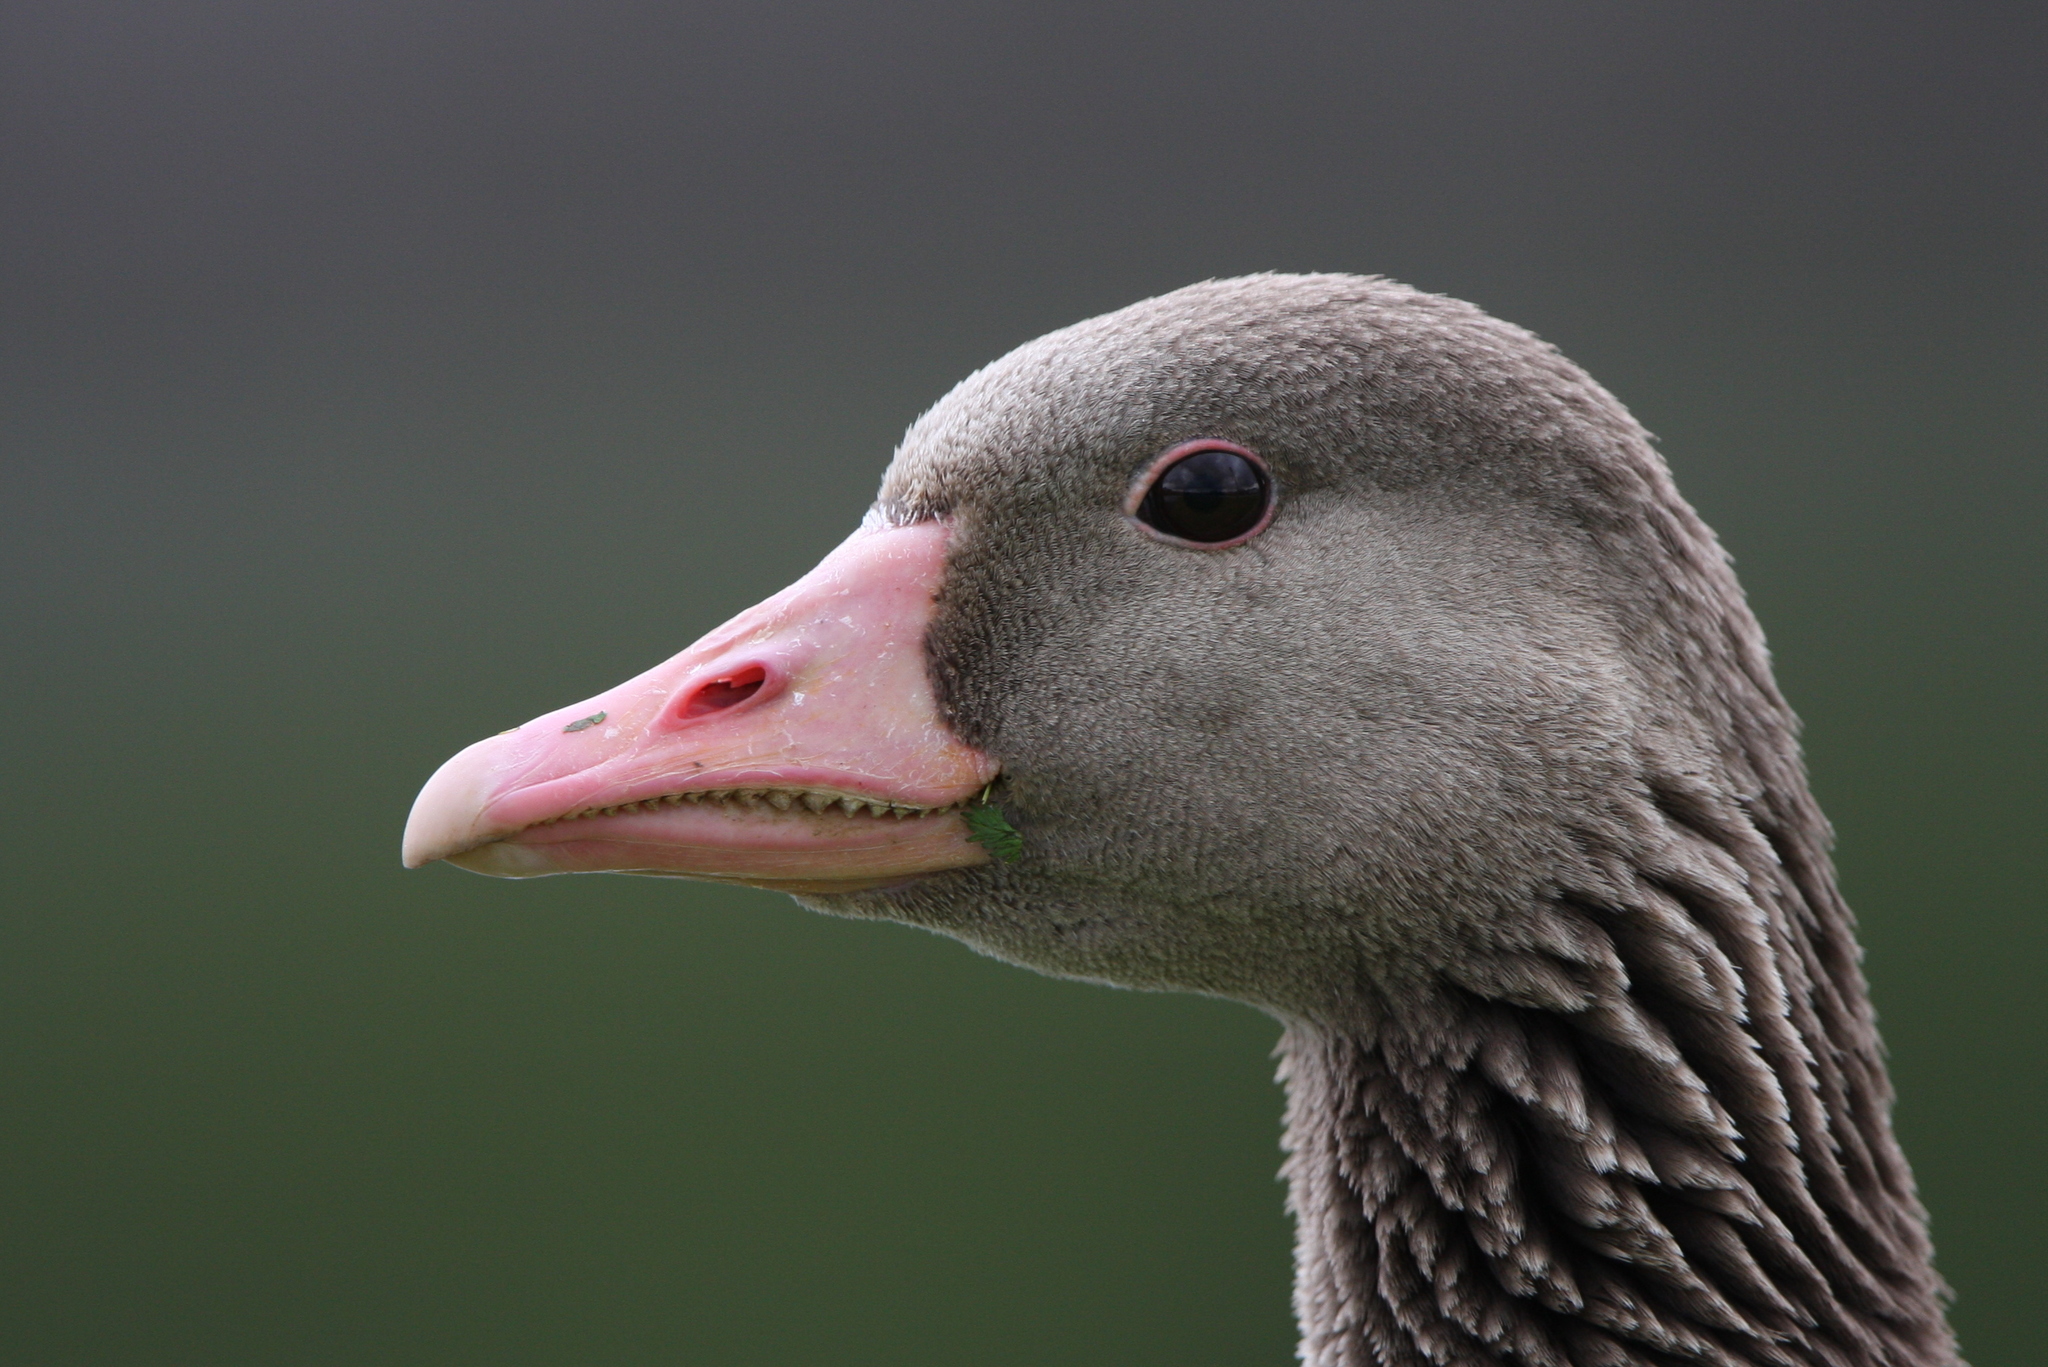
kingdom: Animalia
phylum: Chordata
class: Aves
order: Anseriformes
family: Anatidae
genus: Anser
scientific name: Anser anser
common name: Greylag goose
